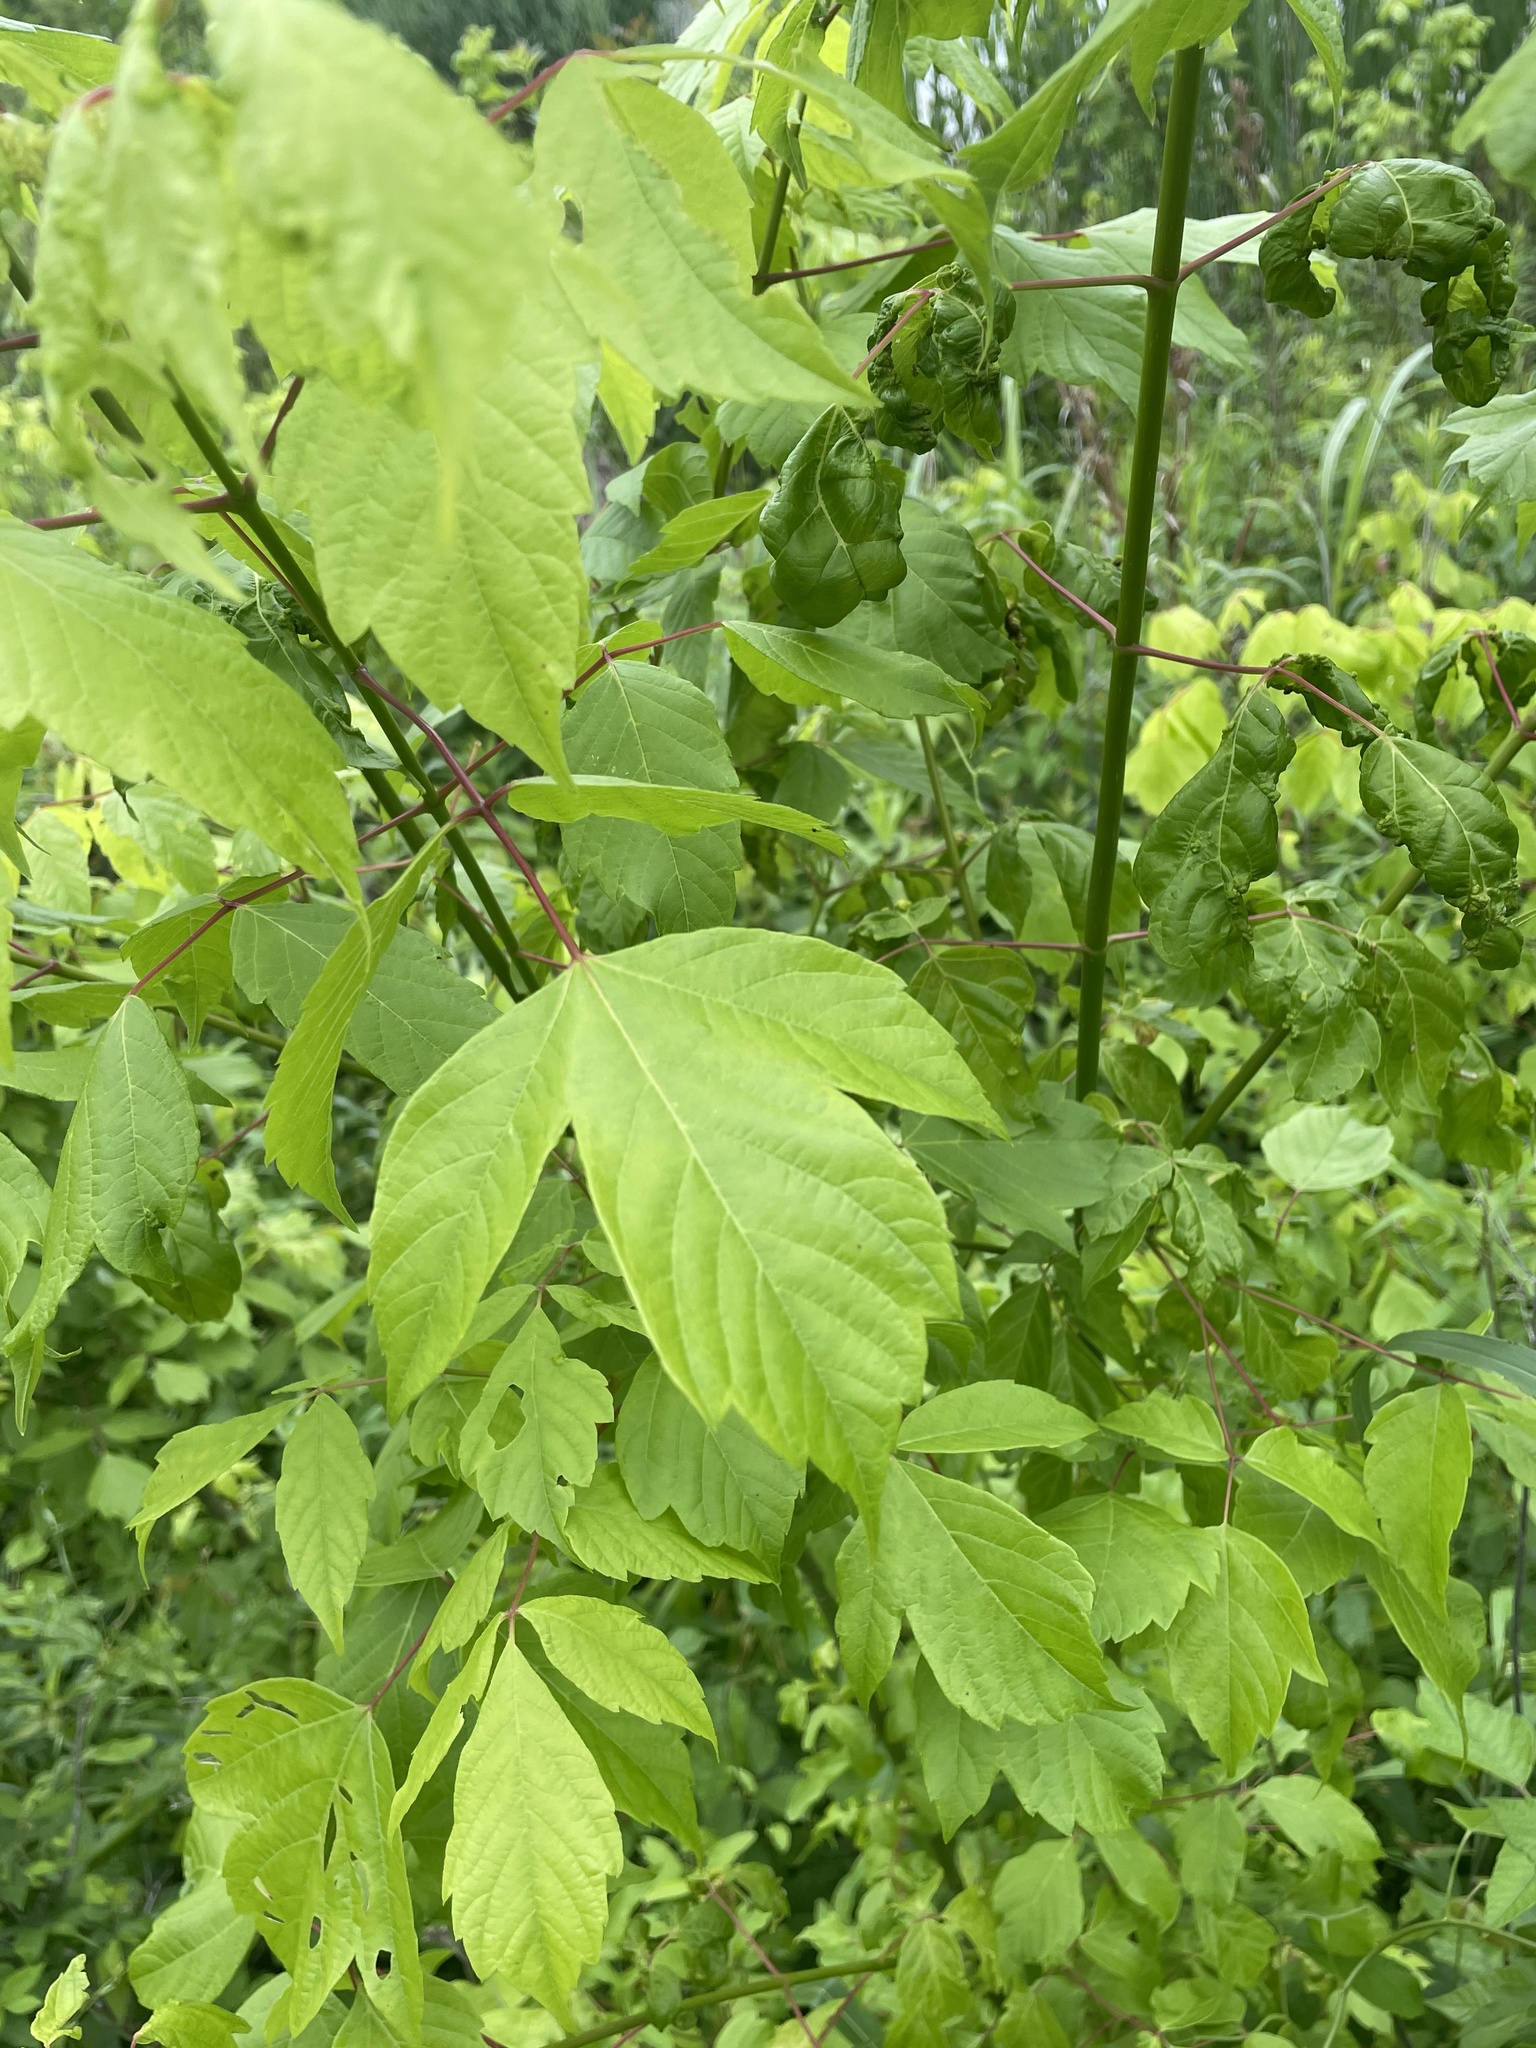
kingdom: Plantae
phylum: Tracheophyta
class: Magnoliopsida
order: Sapindales
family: Sapindaceae
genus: Acer
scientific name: Acer negundo
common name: Ashleaf maple
